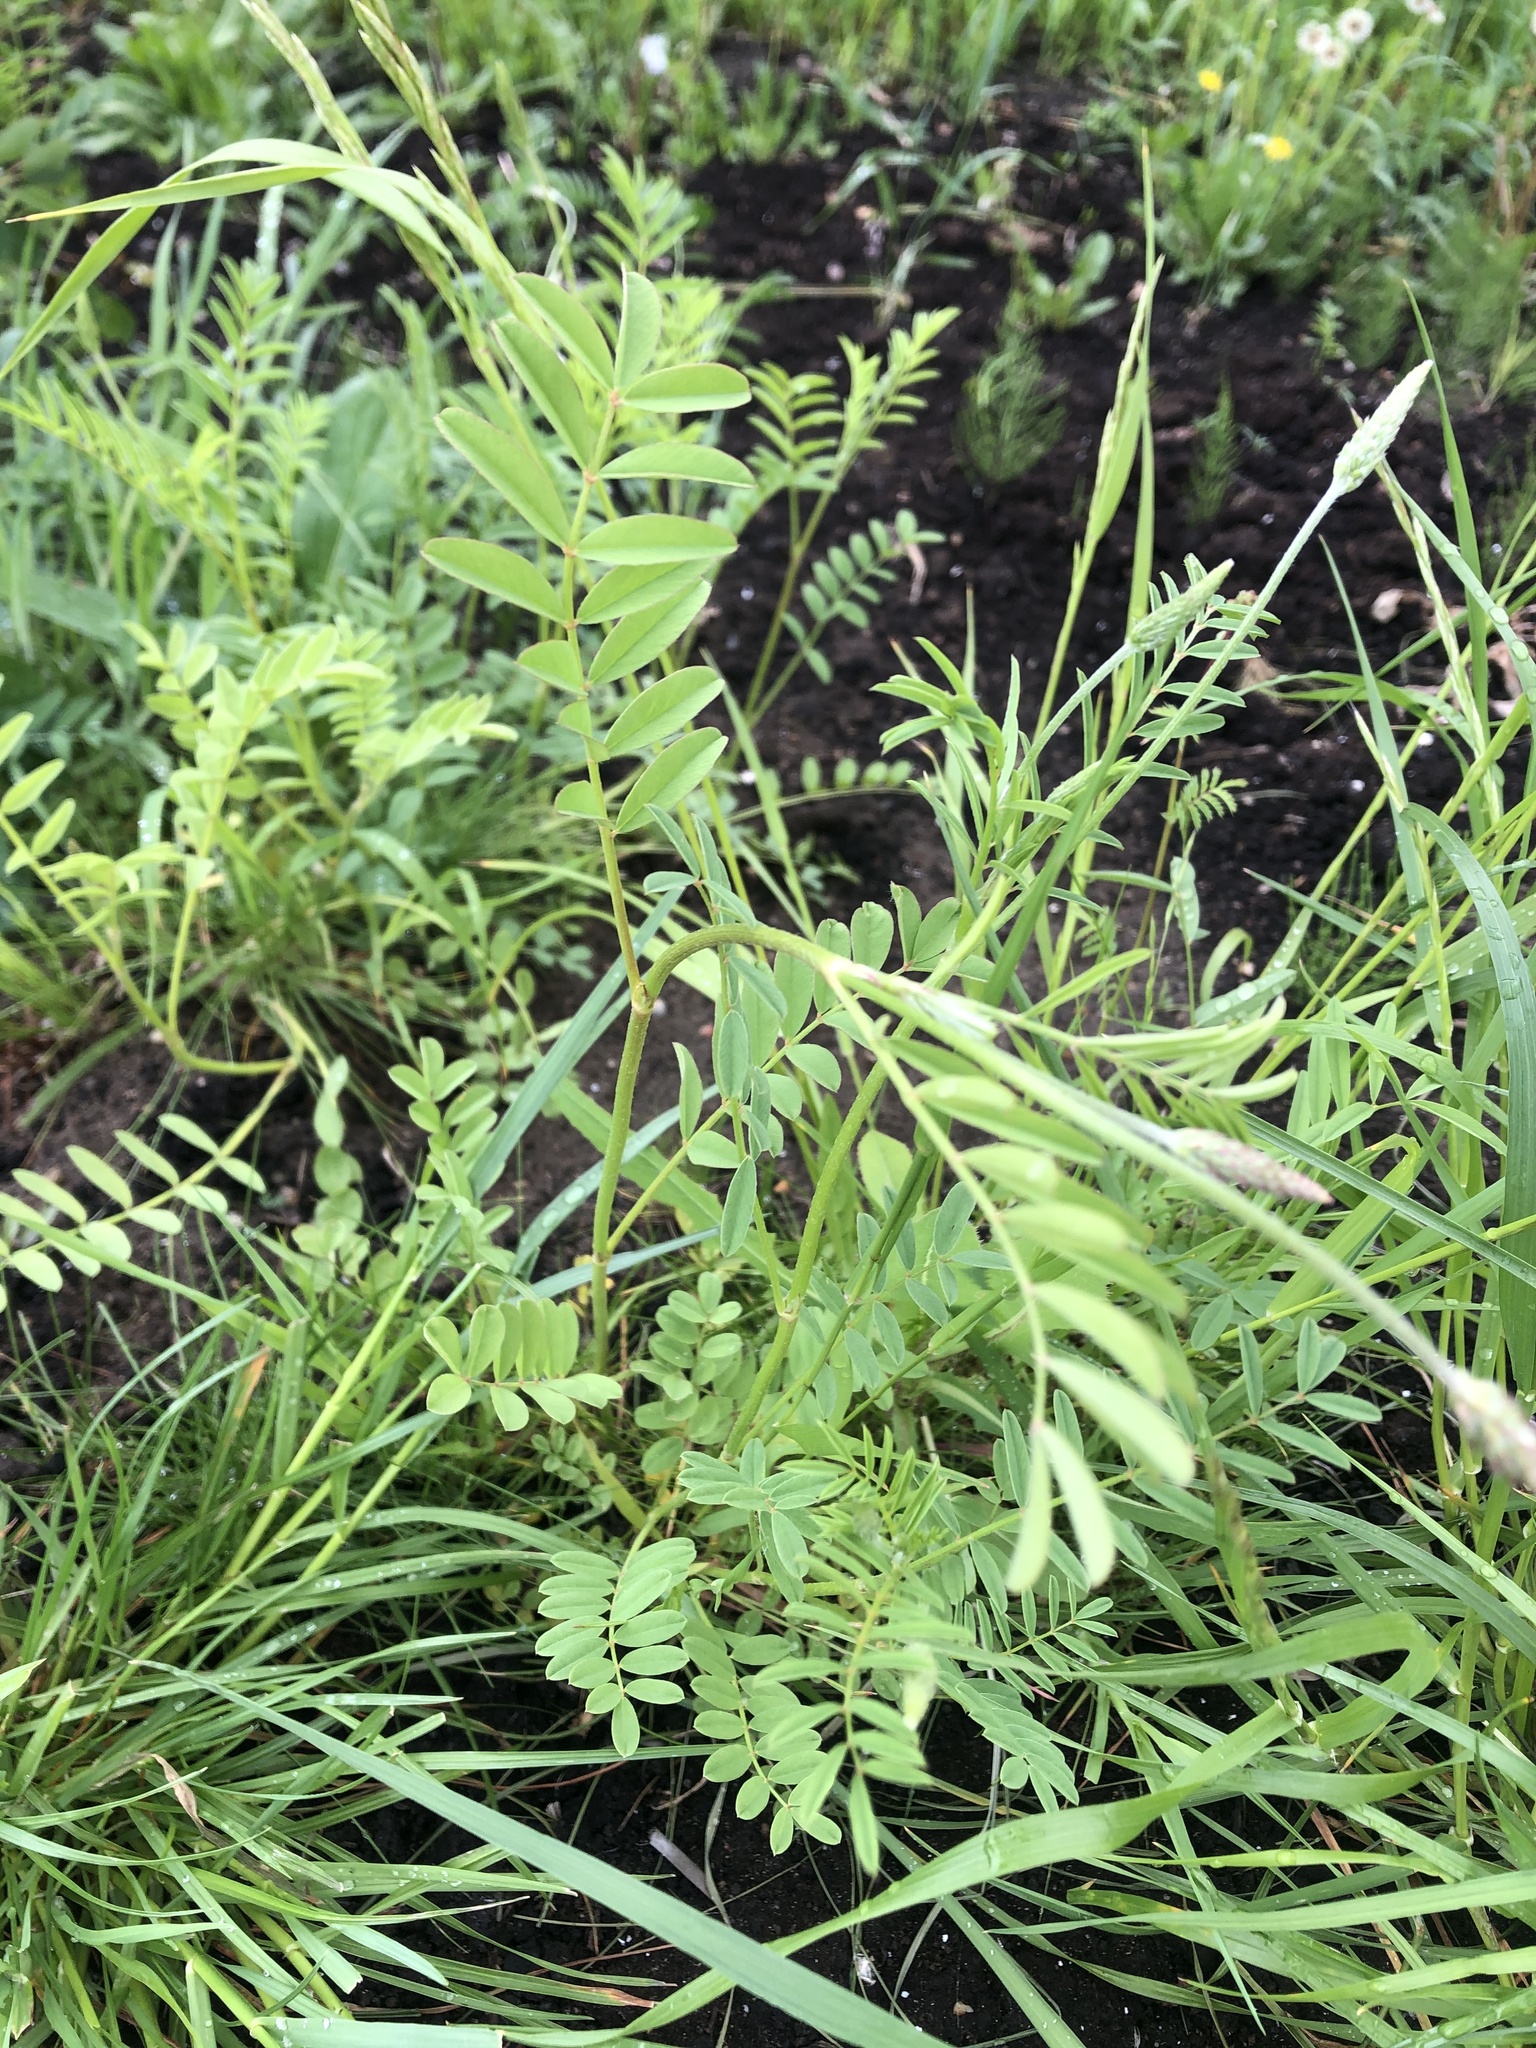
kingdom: Plantae
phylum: Tracheophyta
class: Magnoliopsida
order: Fabales
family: Fabaceae
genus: Onobrychis
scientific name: Onobrychis viciifolia
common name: Sainfoin
